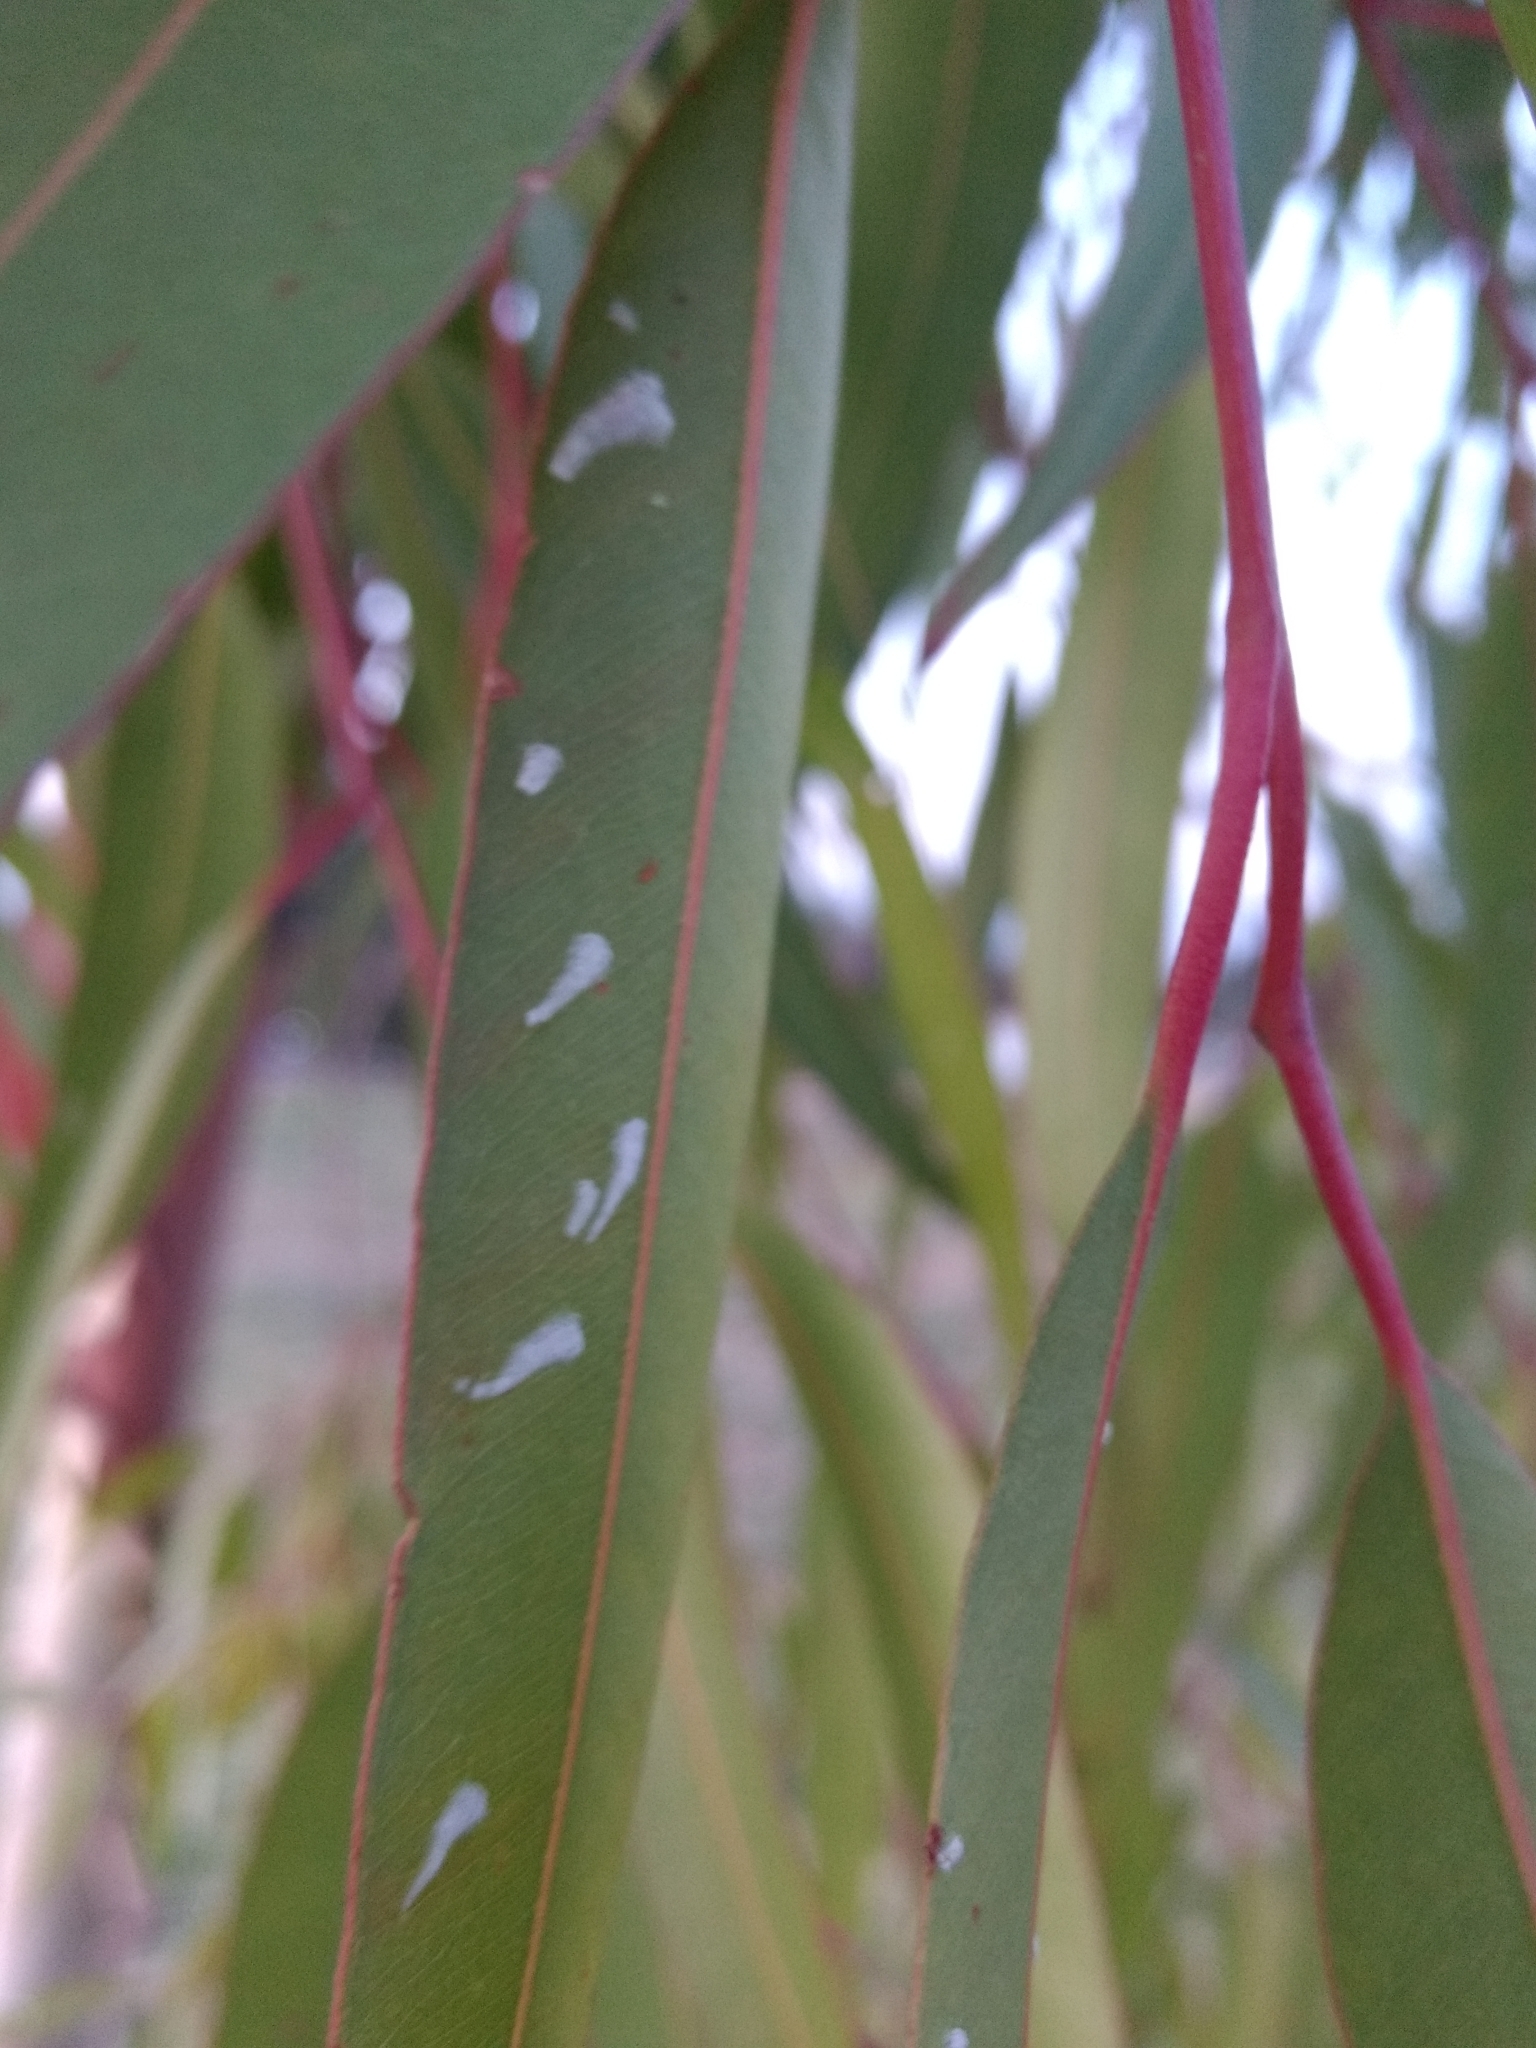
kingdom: Animalia
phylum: Arthropoda
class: Insecta
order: Hemiptera
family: Aphalaridae
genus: Eucalyptolyma
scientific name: Eucalyptolyma maideni
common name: Spotted gum lerp psyllid
